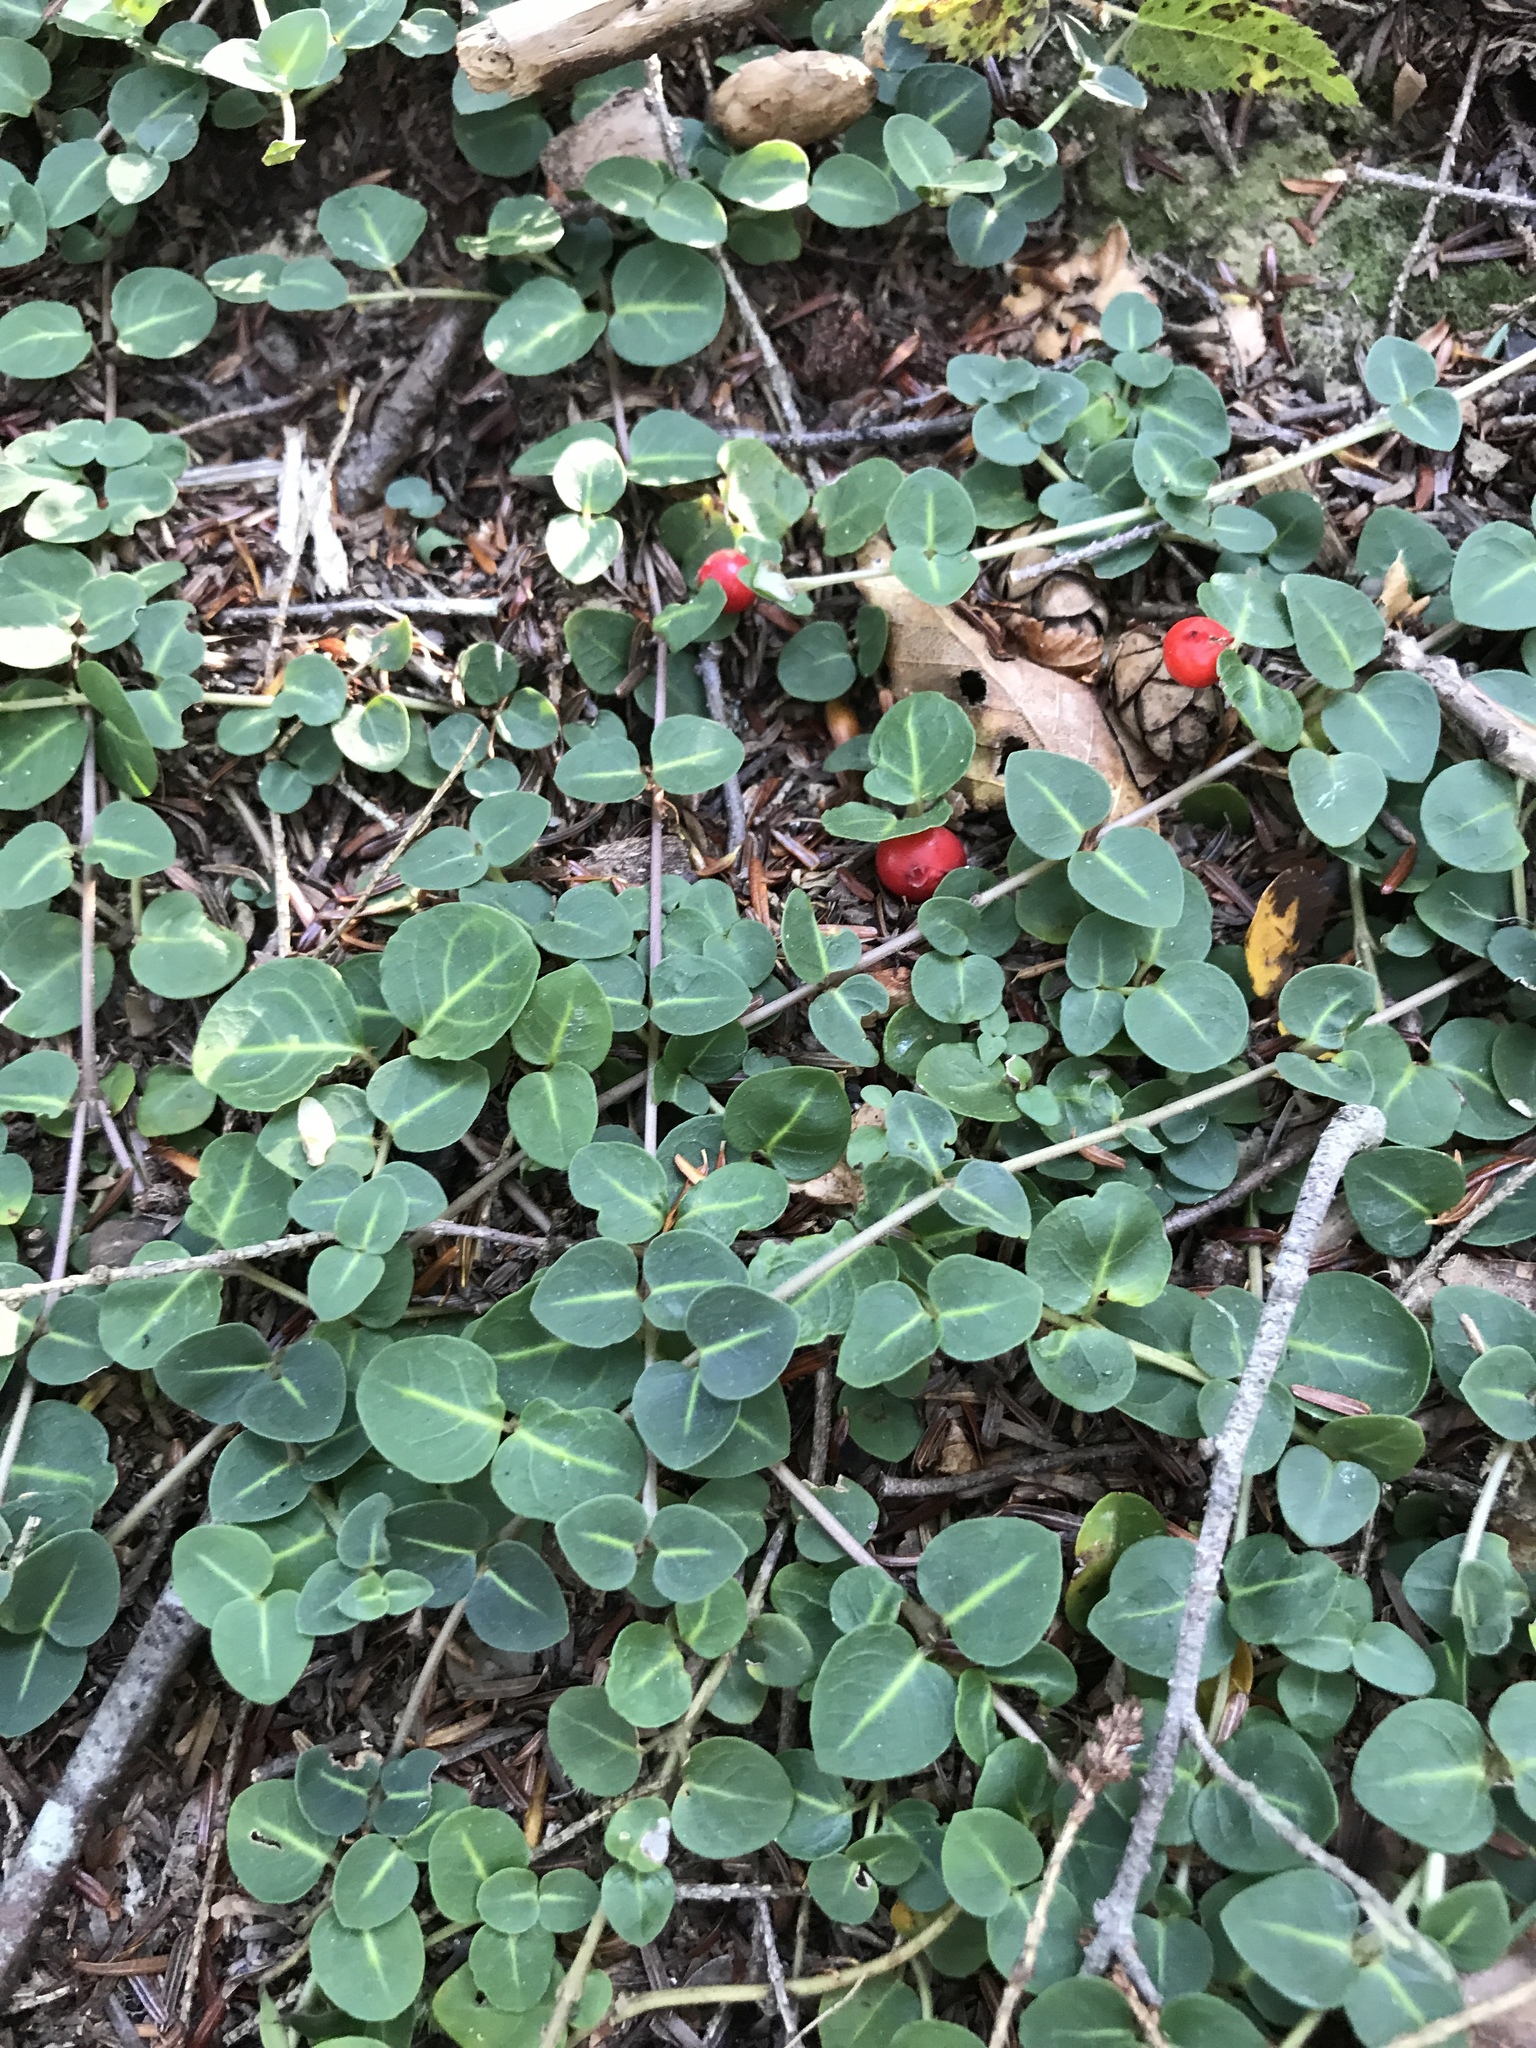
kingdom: Plantae
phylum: Tracheophyta
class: Magnoliopsida
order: Gentianales
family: Rubiaceae
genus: Mitchella
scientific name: Mitchella repens
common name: Partridge-berry
